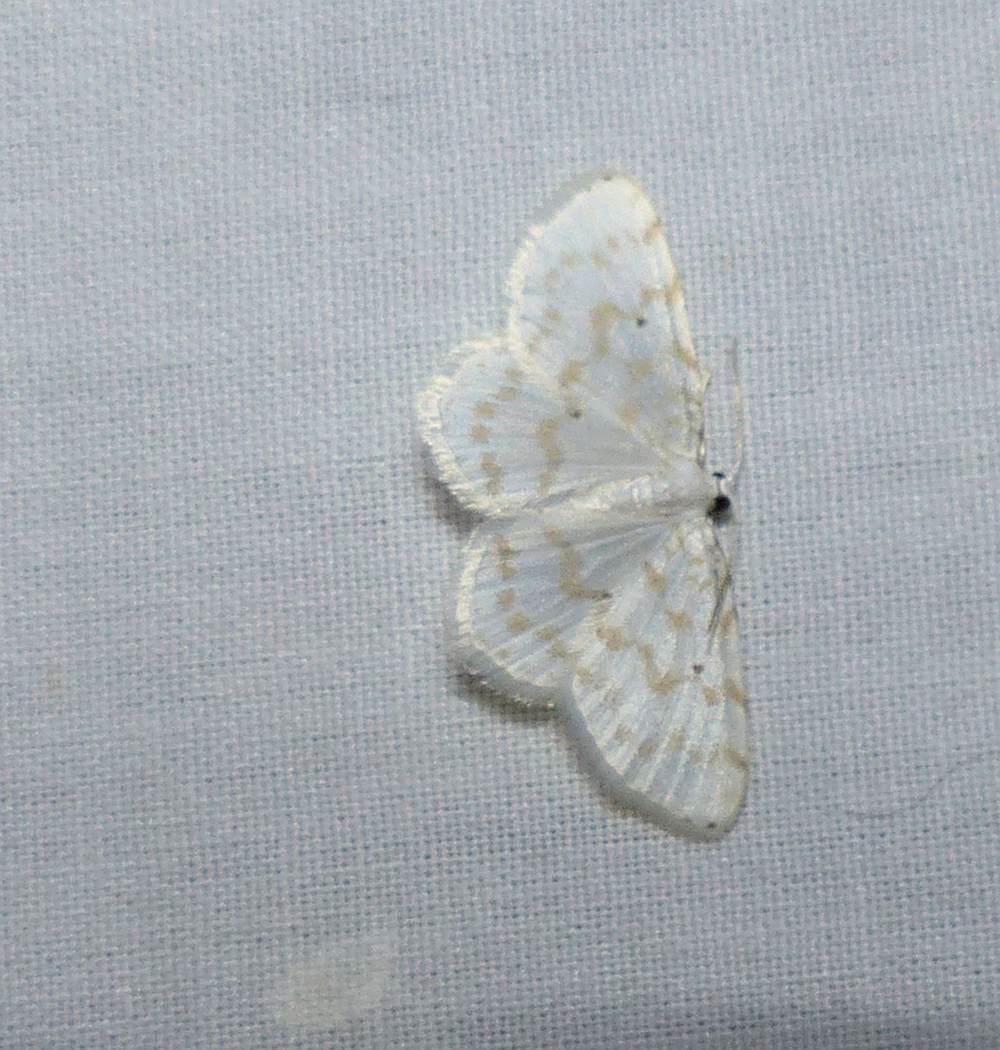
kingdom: Animalia
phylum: Arthropoda
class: Insecta
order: Lepidoptera
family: Geometridae
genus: Hydrelia
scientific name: Hydrelia albifera
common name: Fragile white carpet
